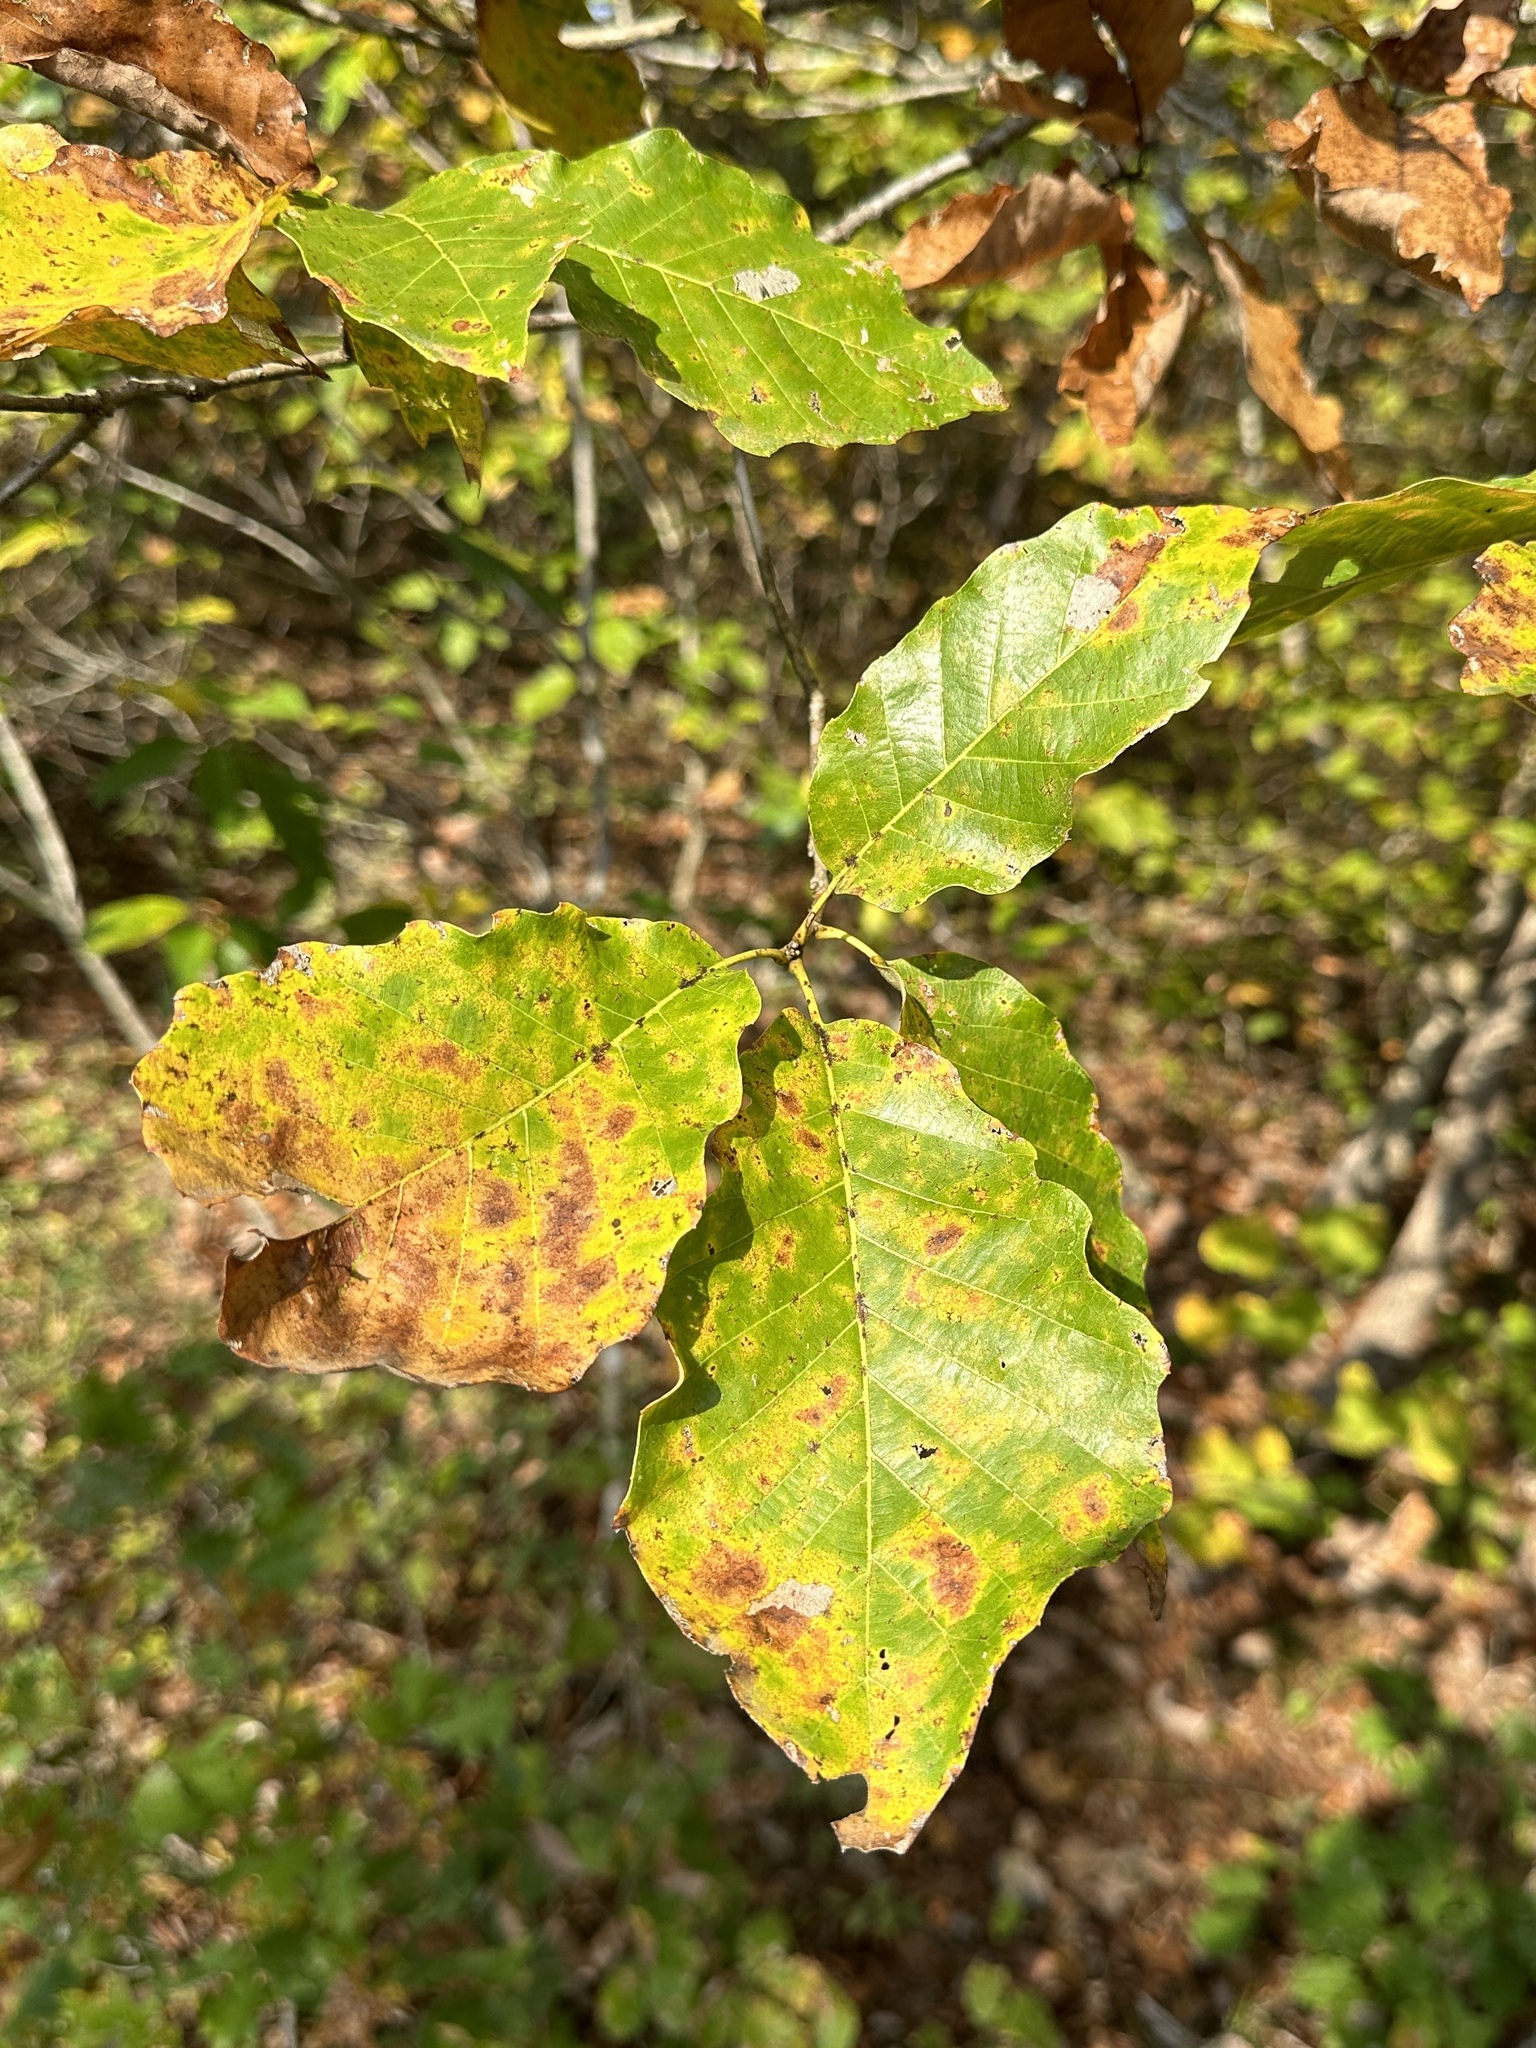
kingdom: Plantae
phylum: Tracheophyta
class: Magnoliopsida
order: Fagales
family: Fagaceae
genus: Quercus
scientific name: Quercus muehlenbergii
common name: Chinkapin oak
